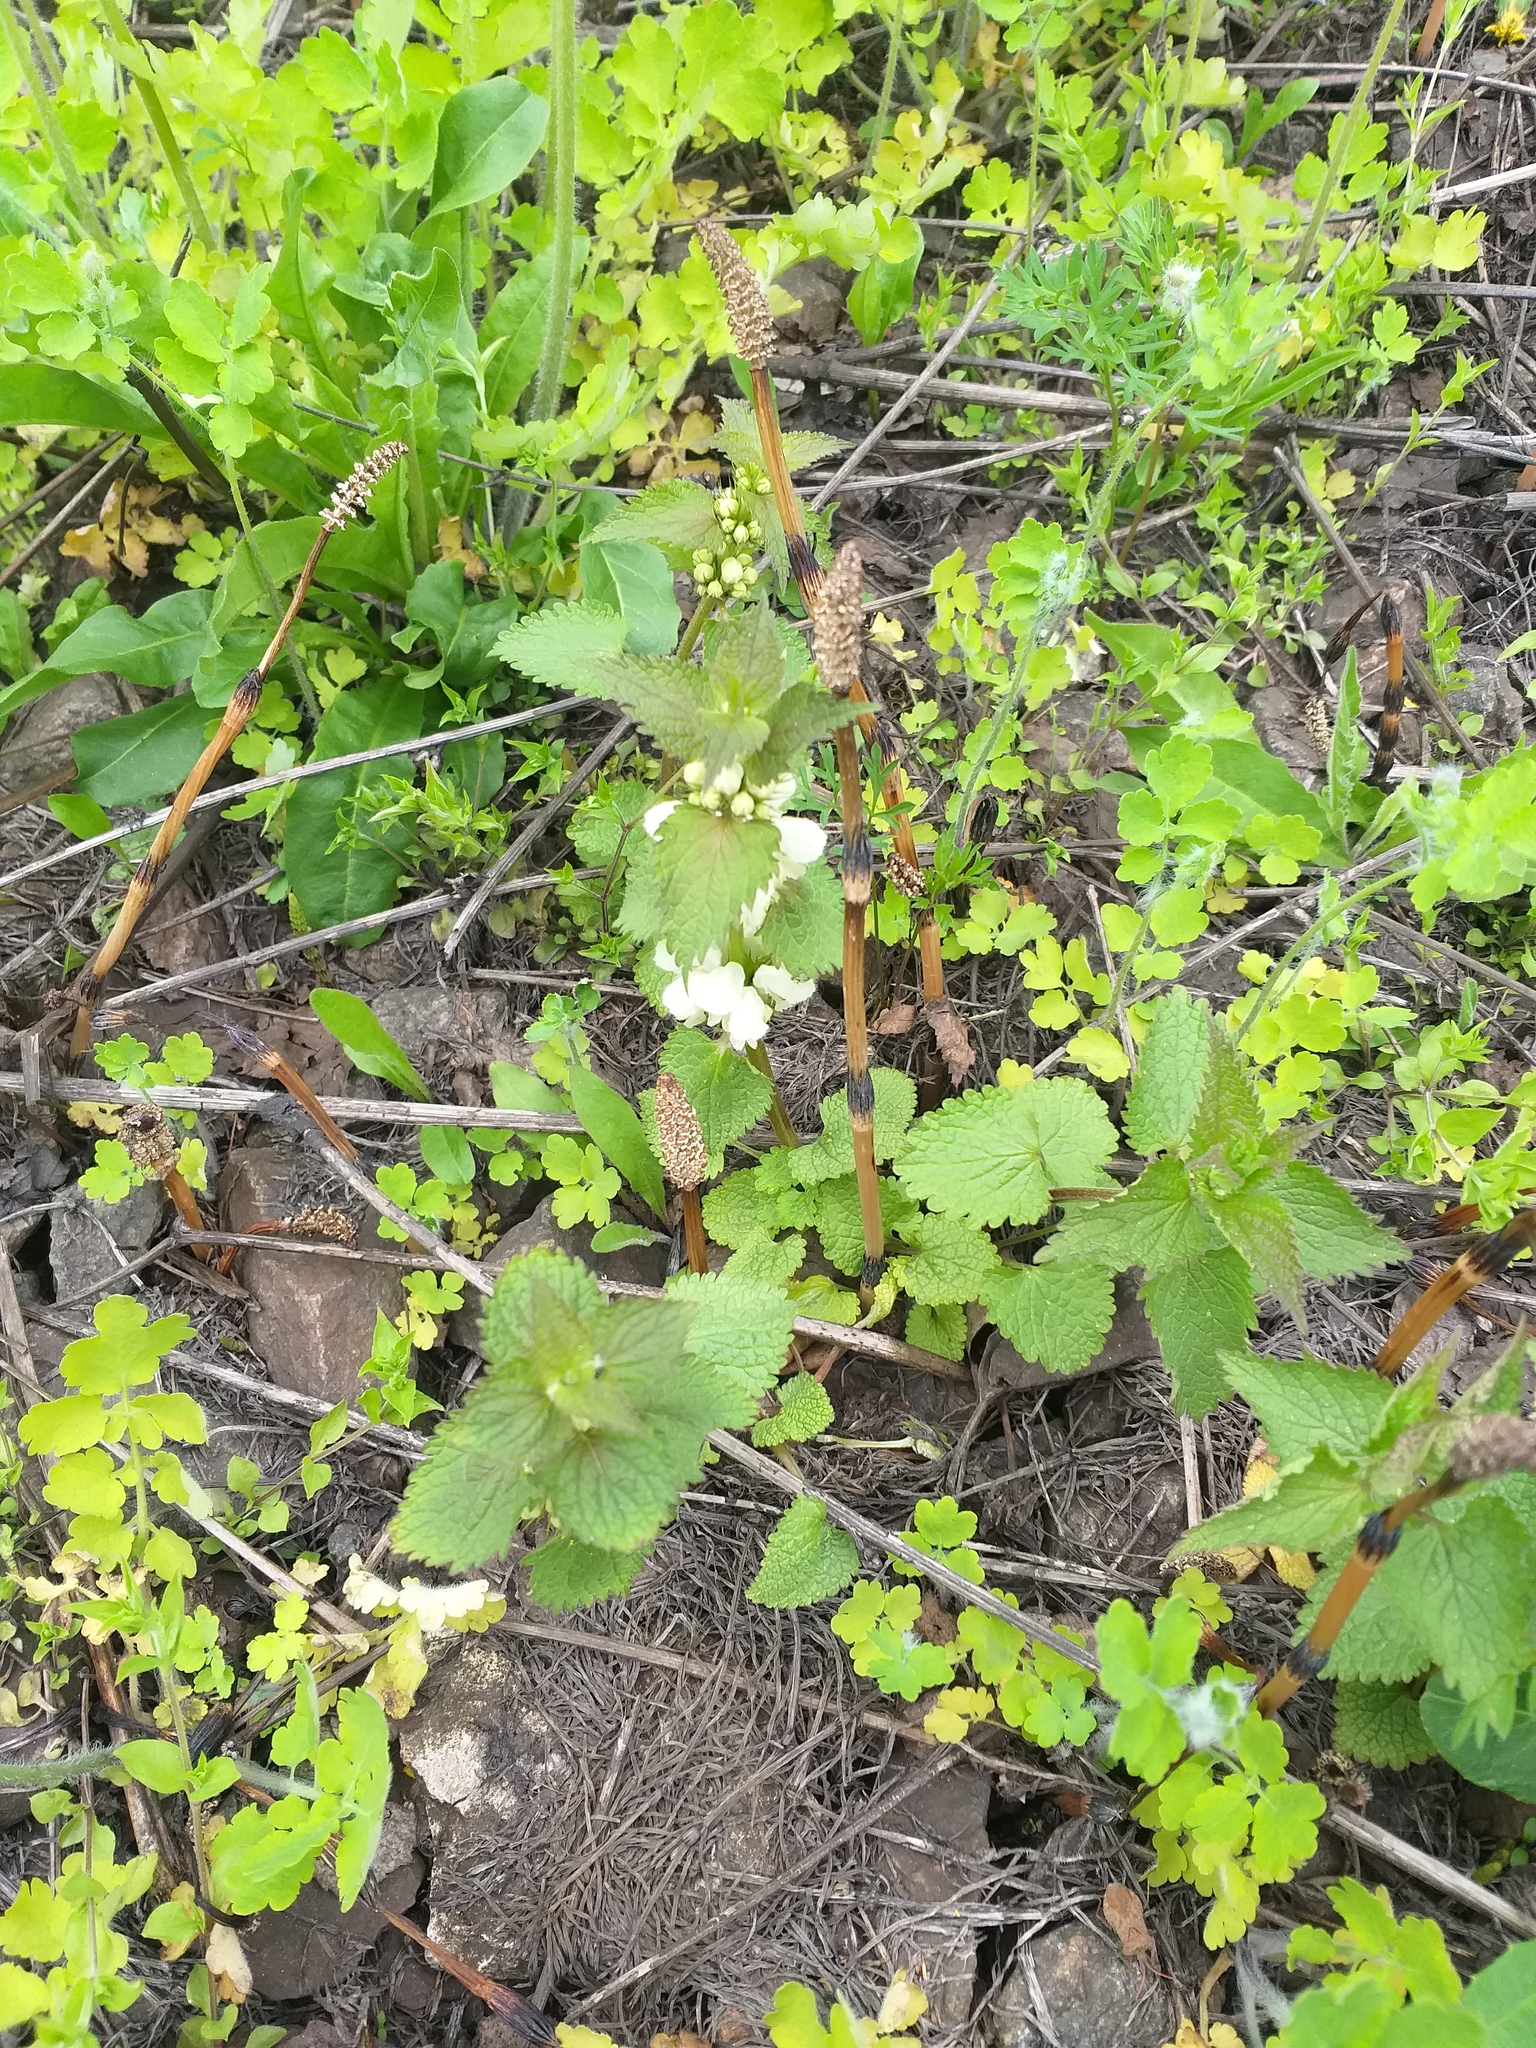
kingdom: Plantae
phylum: Tracheophyta
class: Magnoliopsida
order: Lamiales
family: Lamiaceae
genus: Lamium
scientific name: Lamium album
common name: White dead-nettle
